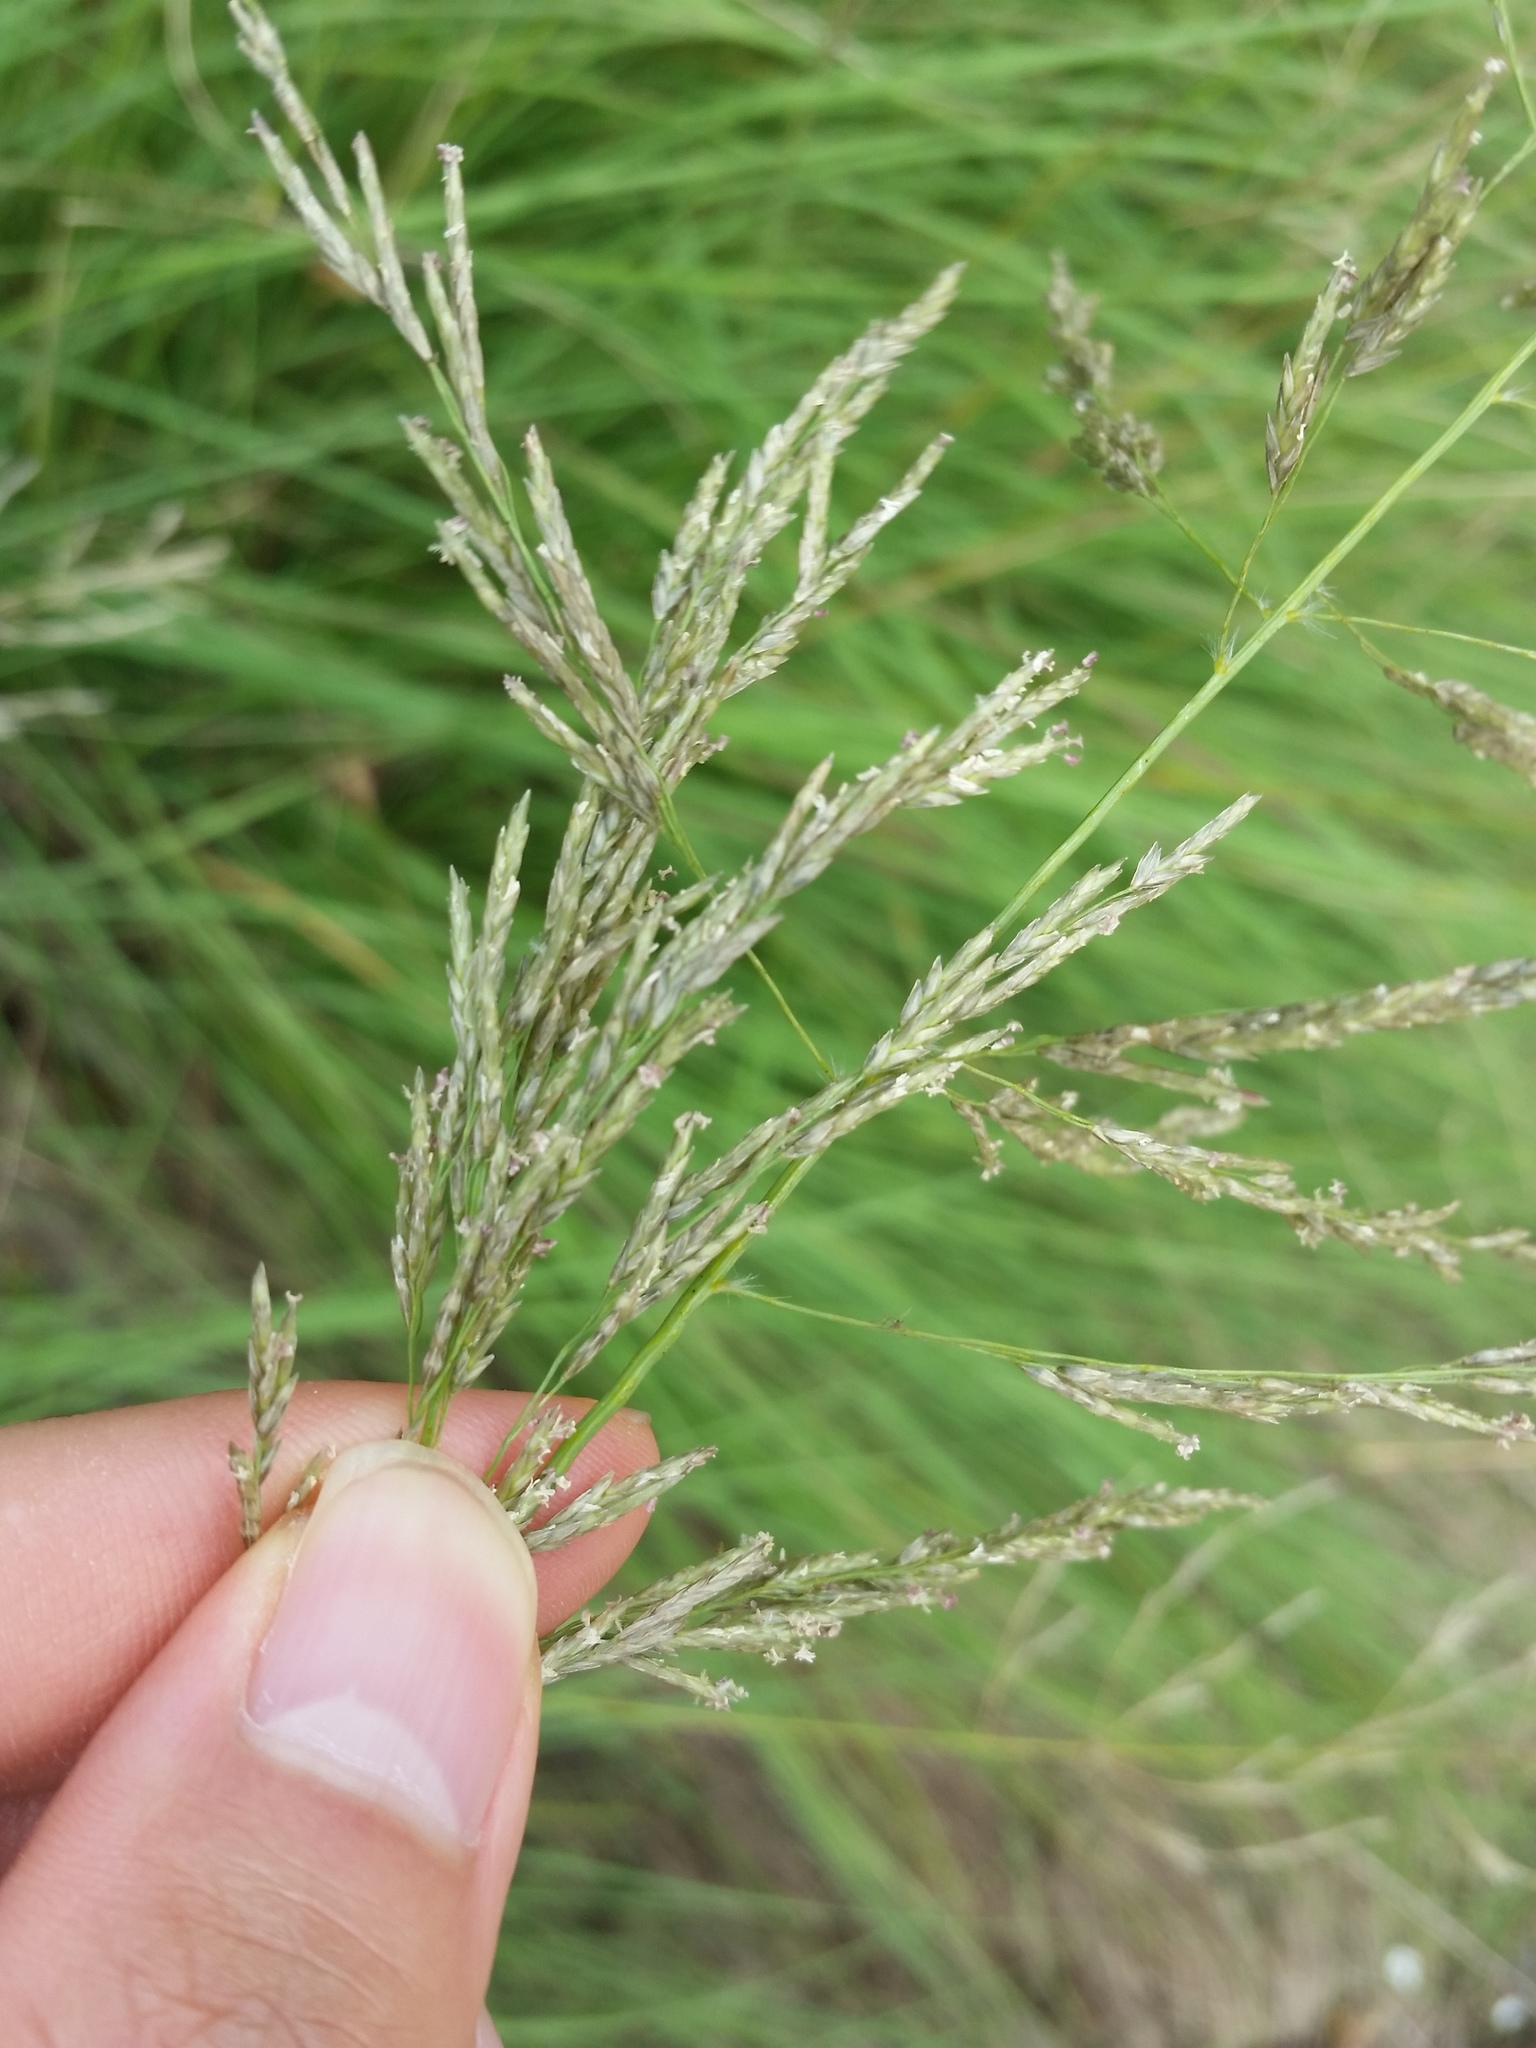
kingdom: Plantae
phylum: Tracheophyta
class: Liliopsida
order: Poales
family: Poaceae
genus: Eragrostis
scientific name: Eragrostis curvula
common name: African love-grass
